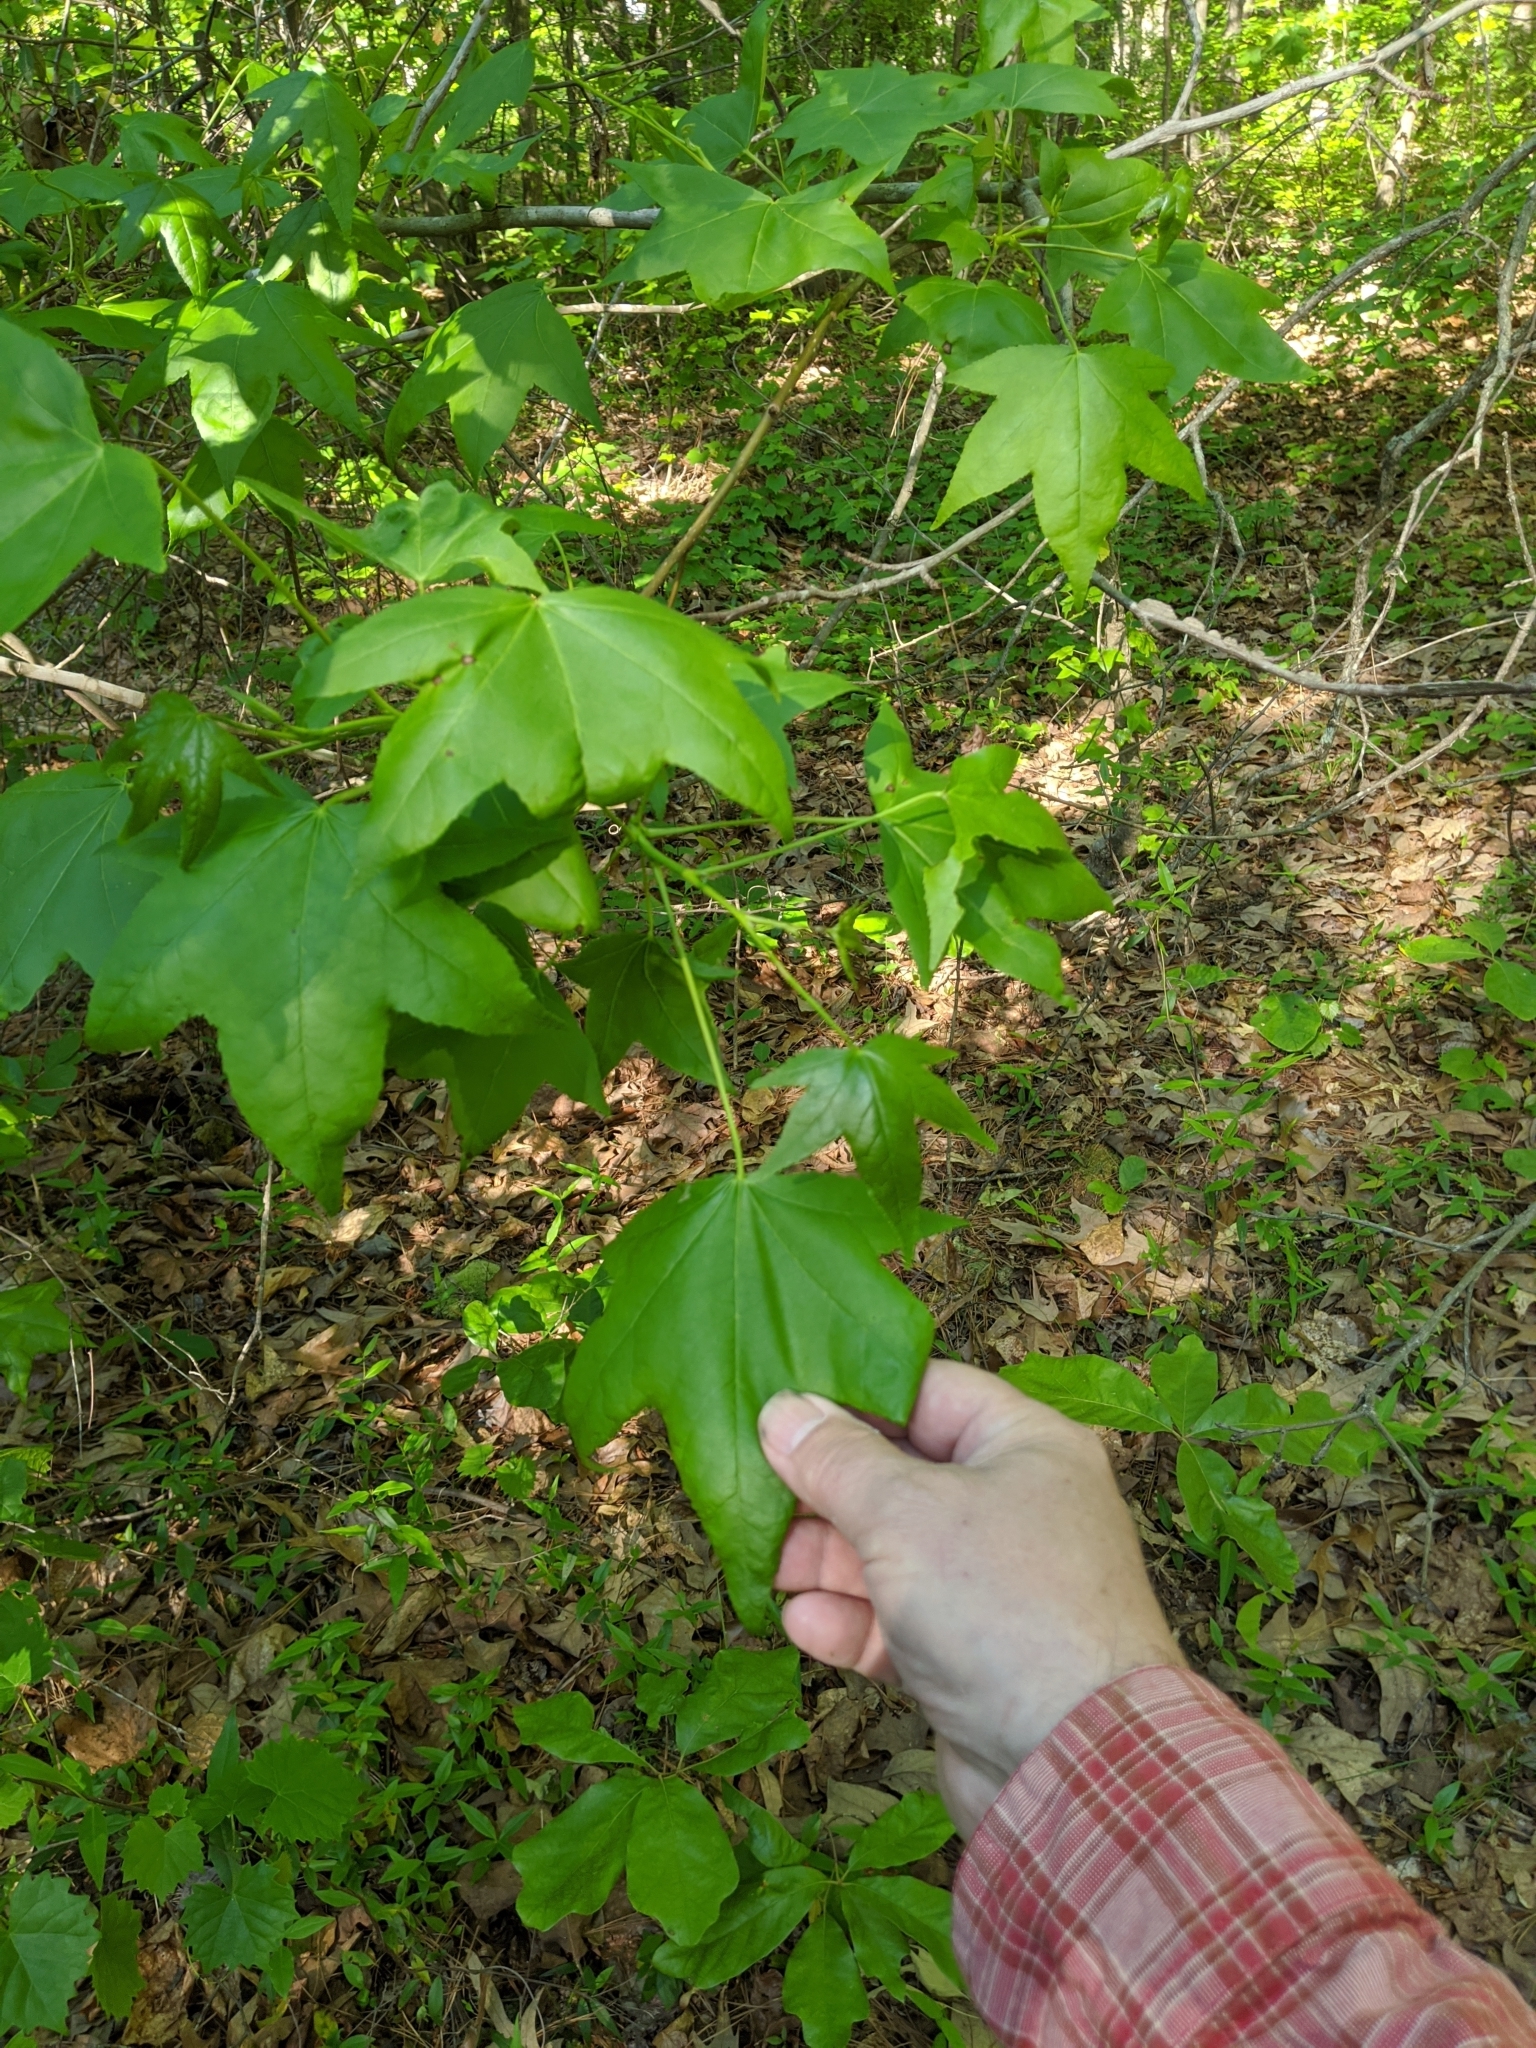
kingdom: Plantae
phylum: Tracheophyta
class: Magnoliopsida
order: Saxifragales
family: Altingiaceae
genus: Liquidambar
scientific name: Liquidambar styraciflua
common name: Sweet gum
